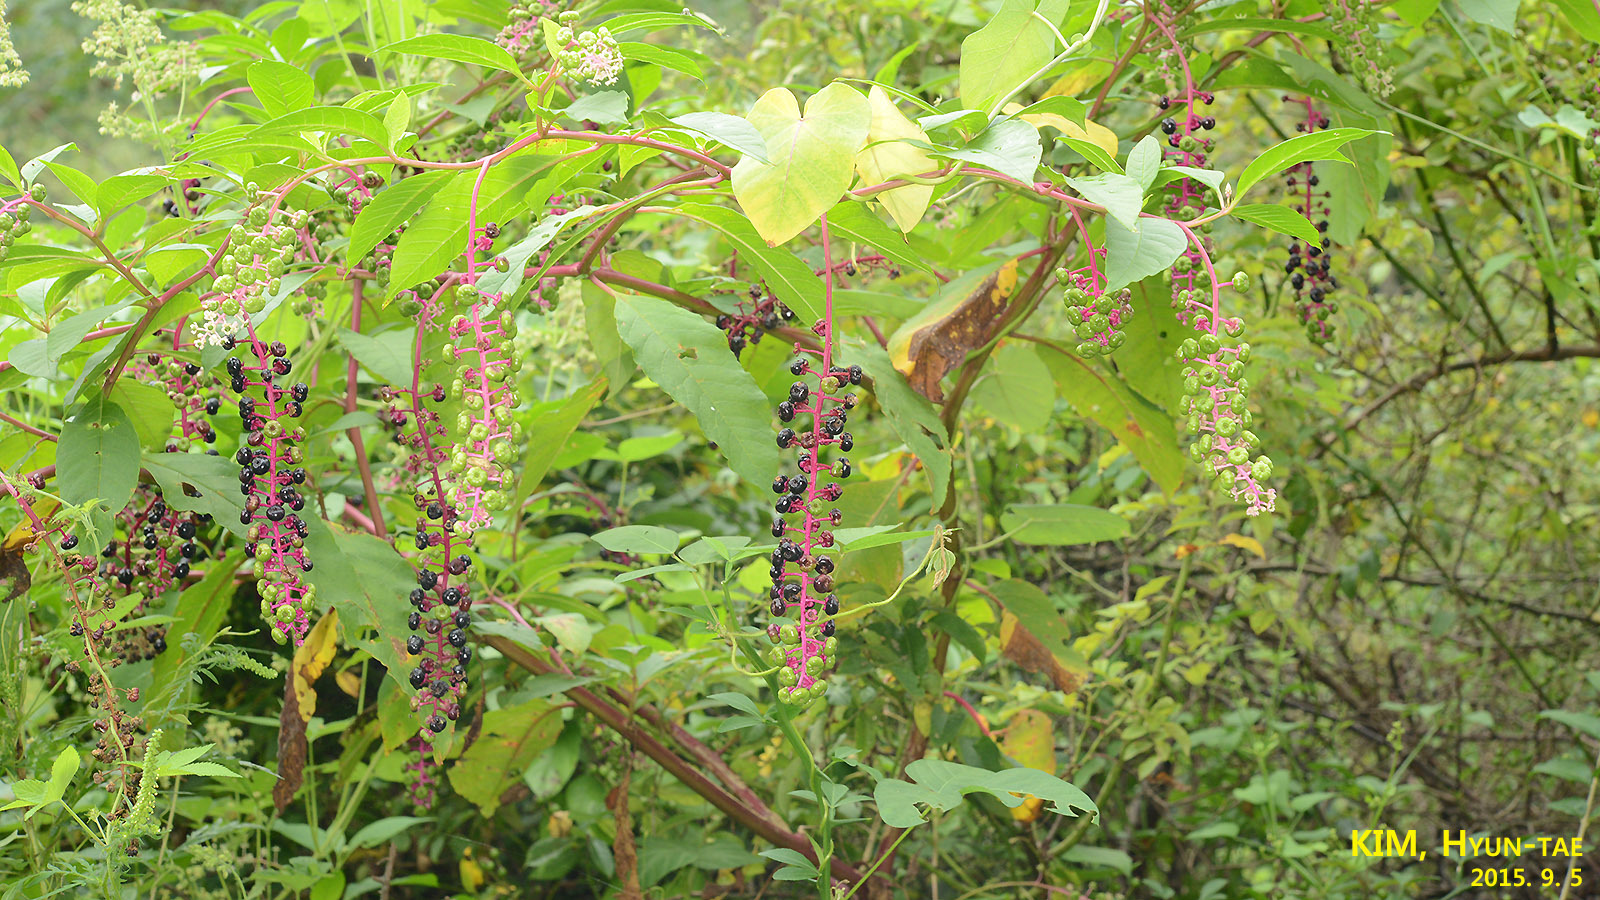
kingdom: Plantae
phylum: Tracheophyta
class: Magnoliopsida
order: Caryophyllales
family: Phytolaccaceae
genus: Phytolacca
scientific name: Phytolacca americana
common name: American pokeweed
